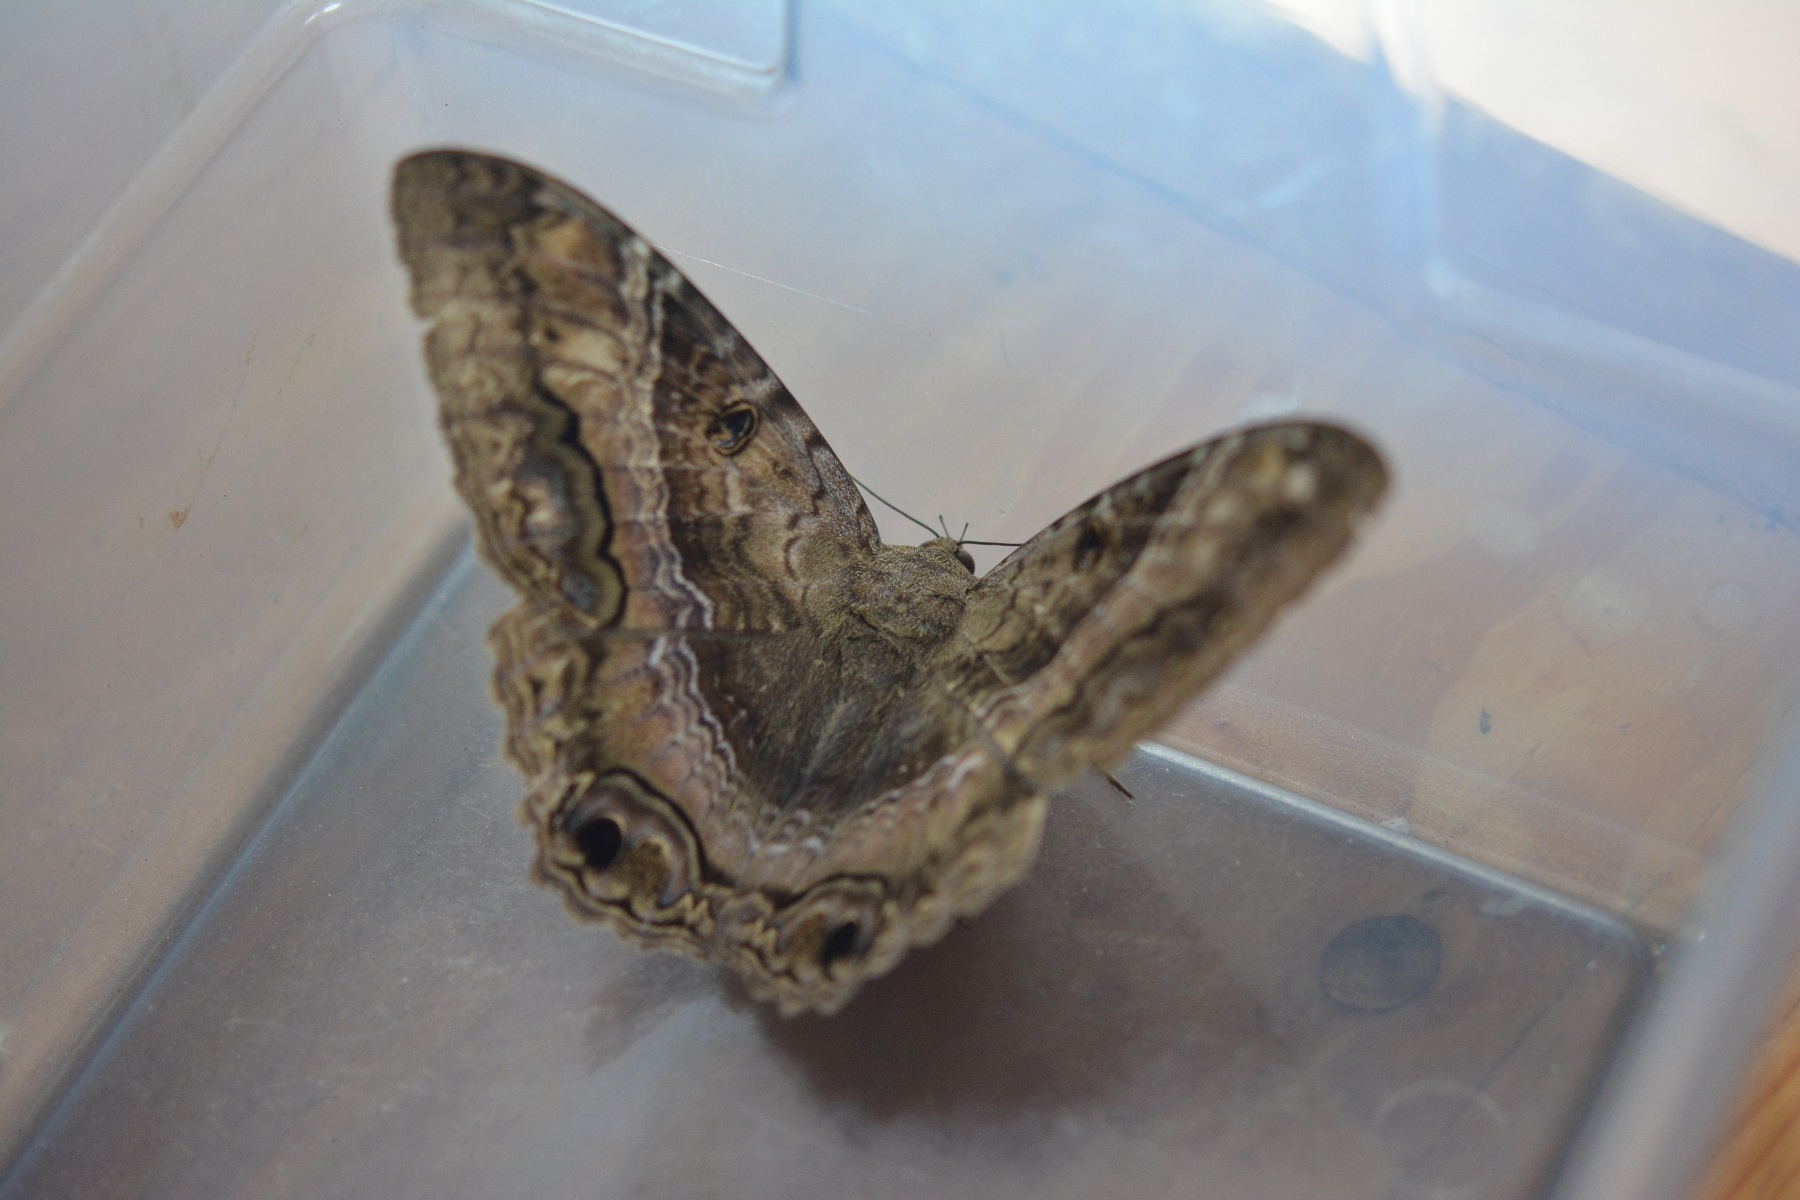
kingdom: Animalia
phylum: Arthropoda
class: Insecta
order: Lepidoptera
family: Erebidae
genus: Ascalapha
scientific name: Ascalapha odorata
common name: Black witch
